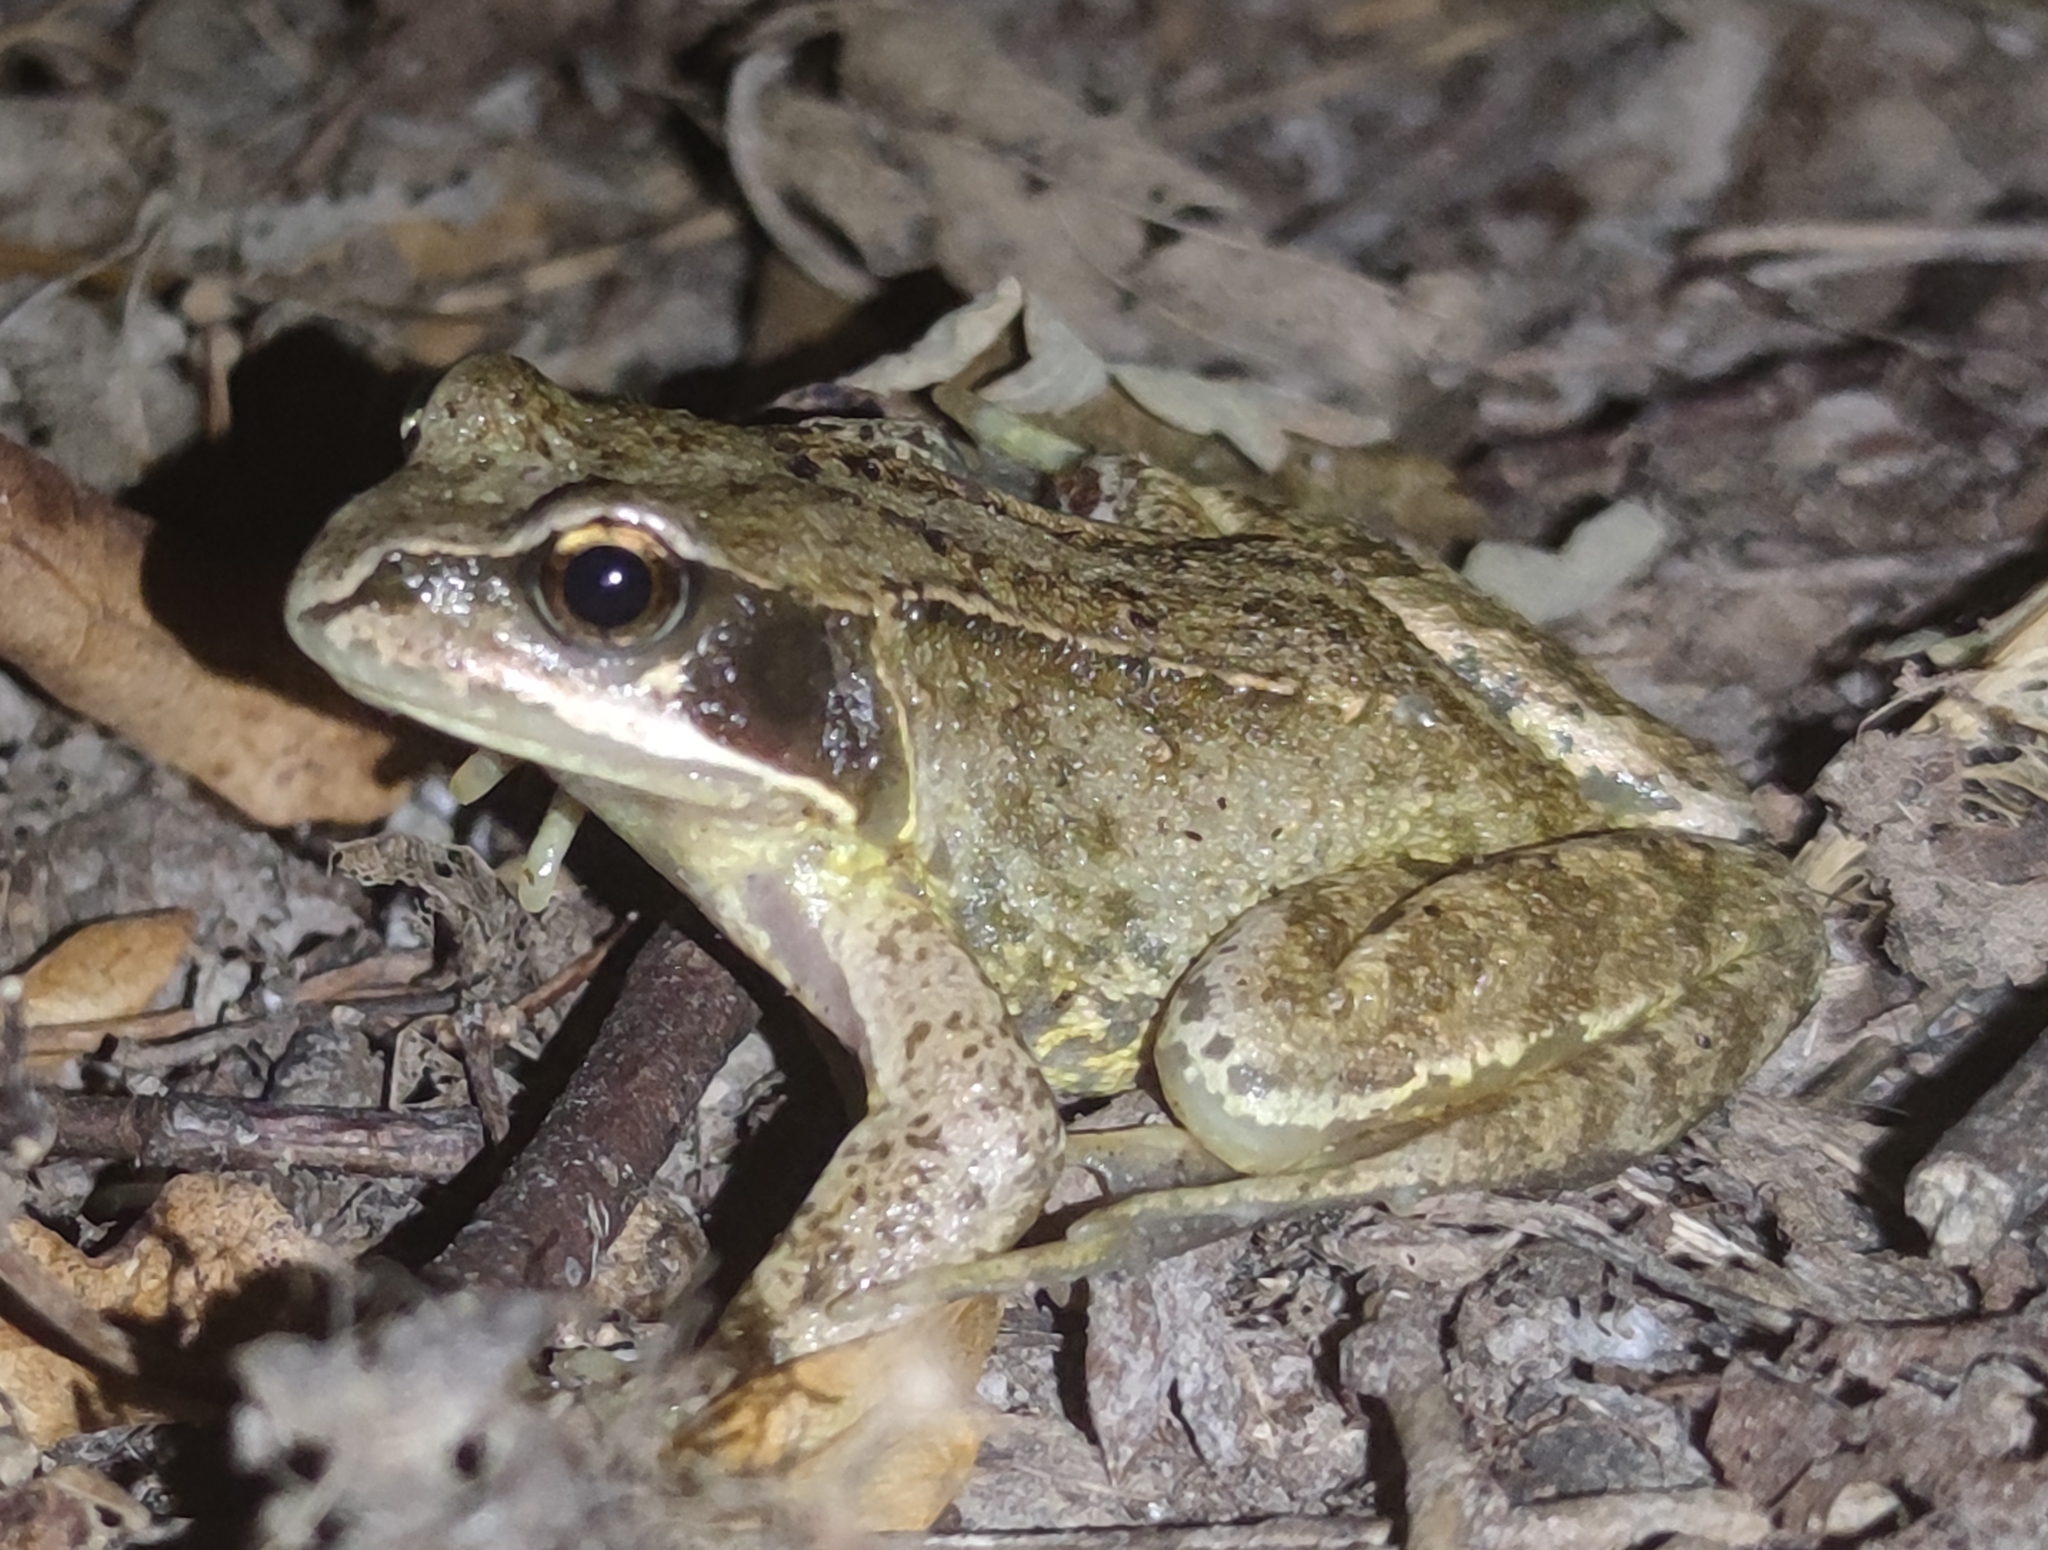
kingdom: Animalia
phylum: Chordata
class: Amphibia
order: Anura
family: Ranidae
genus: Rana
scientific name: Rana temporaria
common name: Common frog
